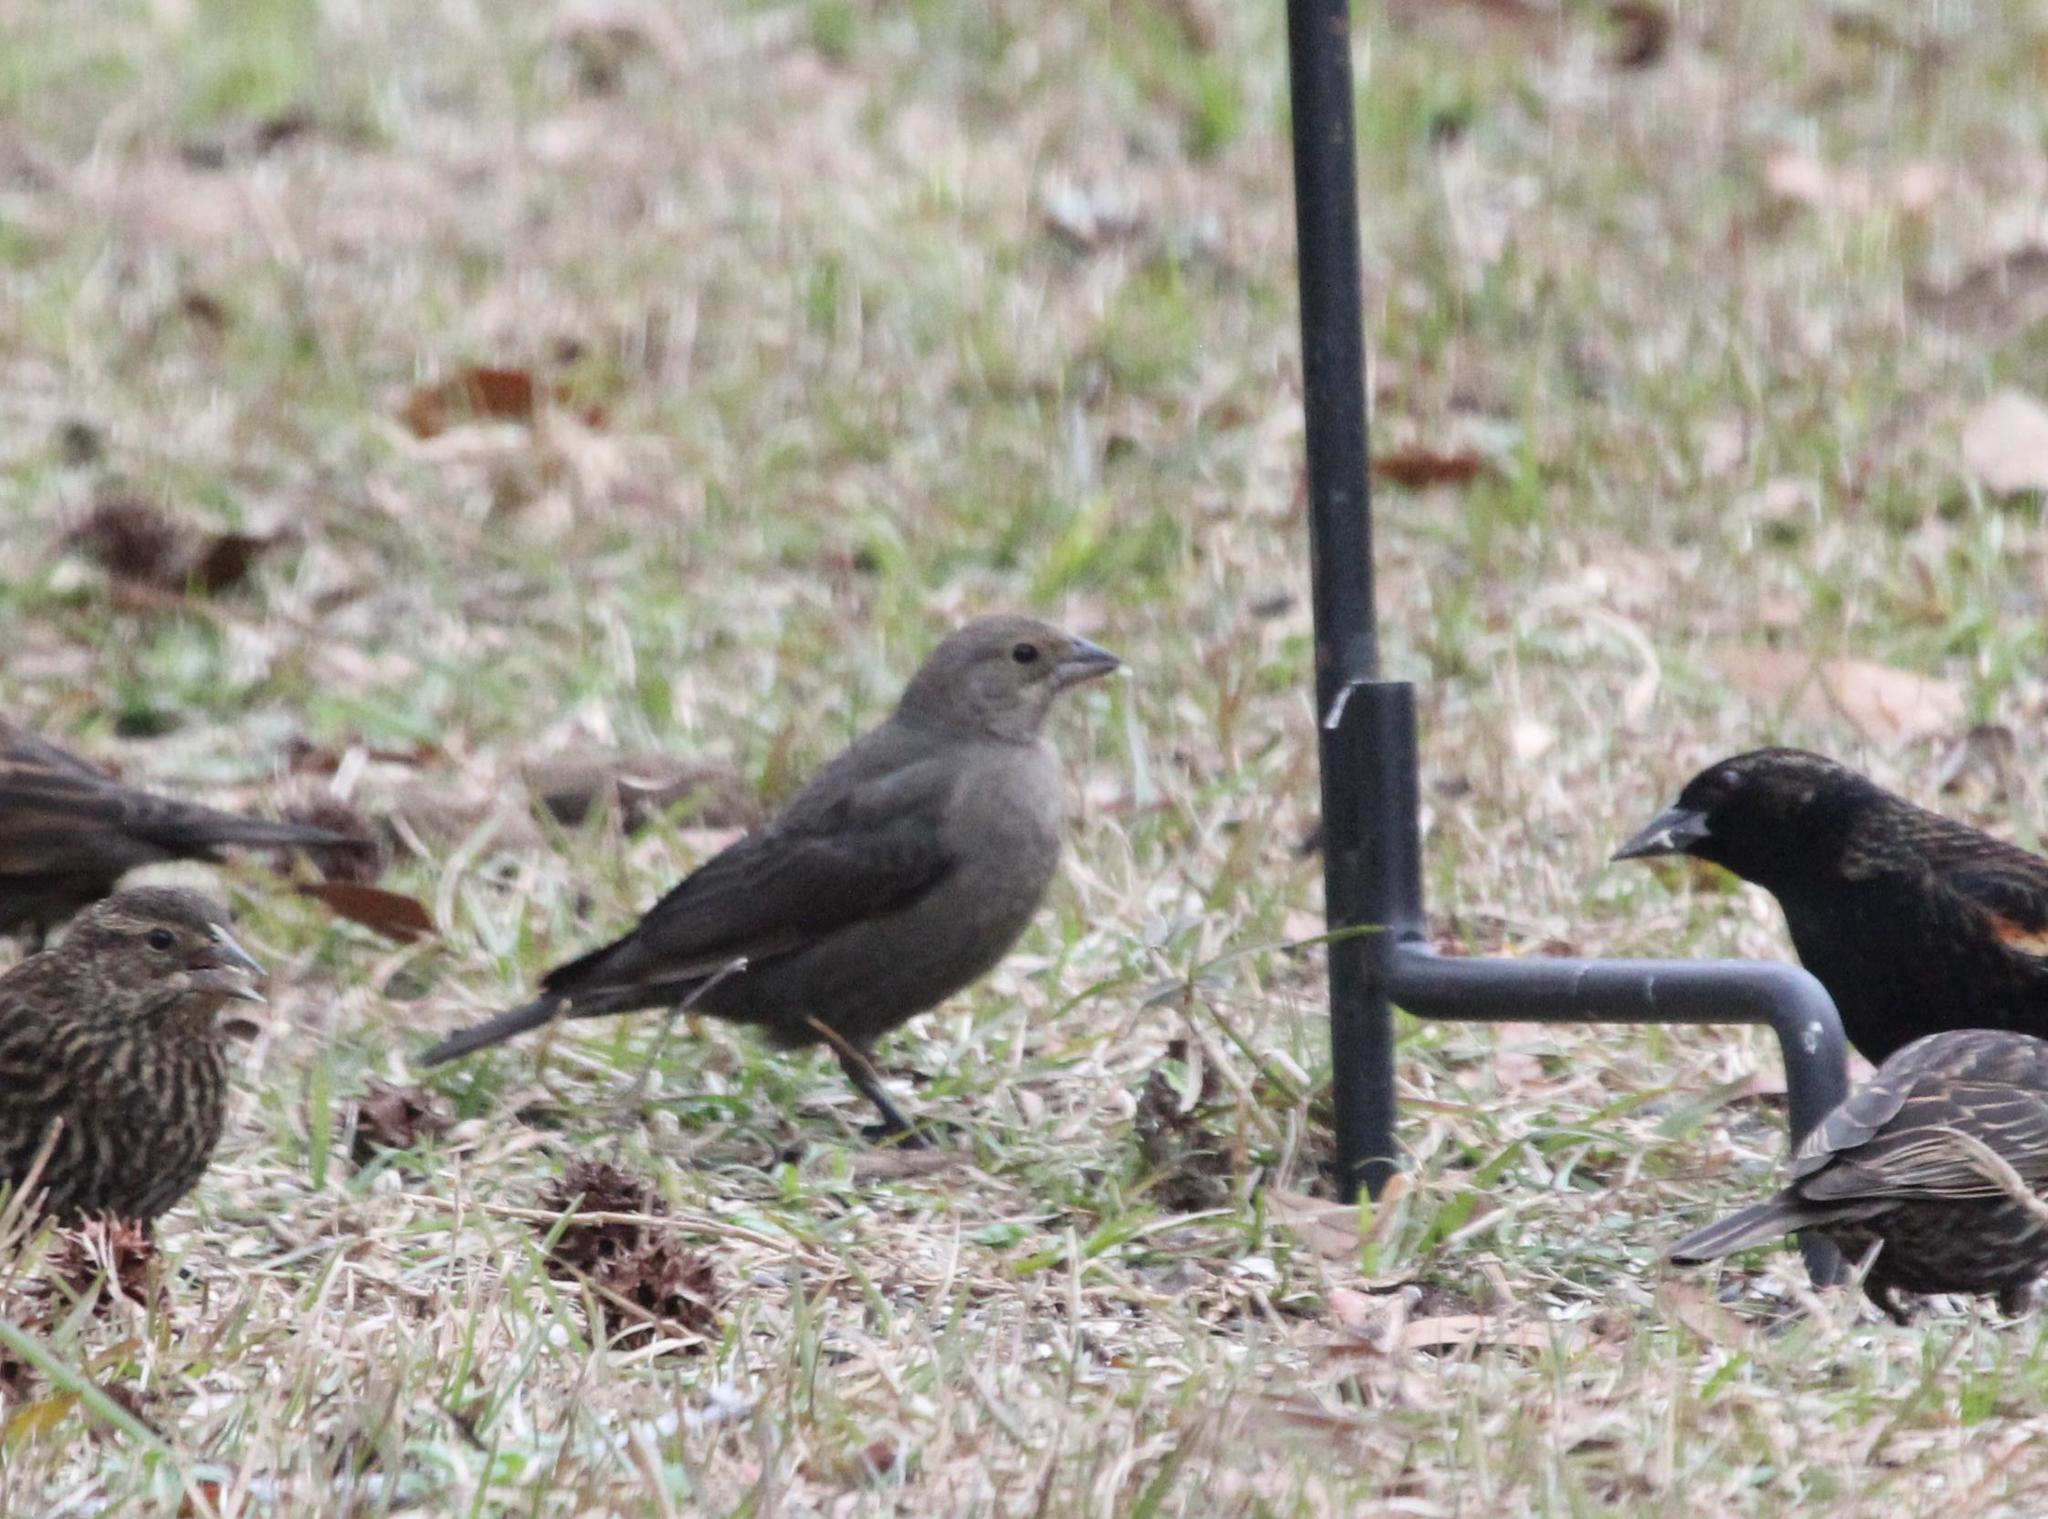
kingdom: Animalia
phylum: Chordata
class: Aves
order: Passeriformes
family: Icteridae
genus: Molothrus
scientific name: Molothrus ater
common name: Brown-headed cowbird
